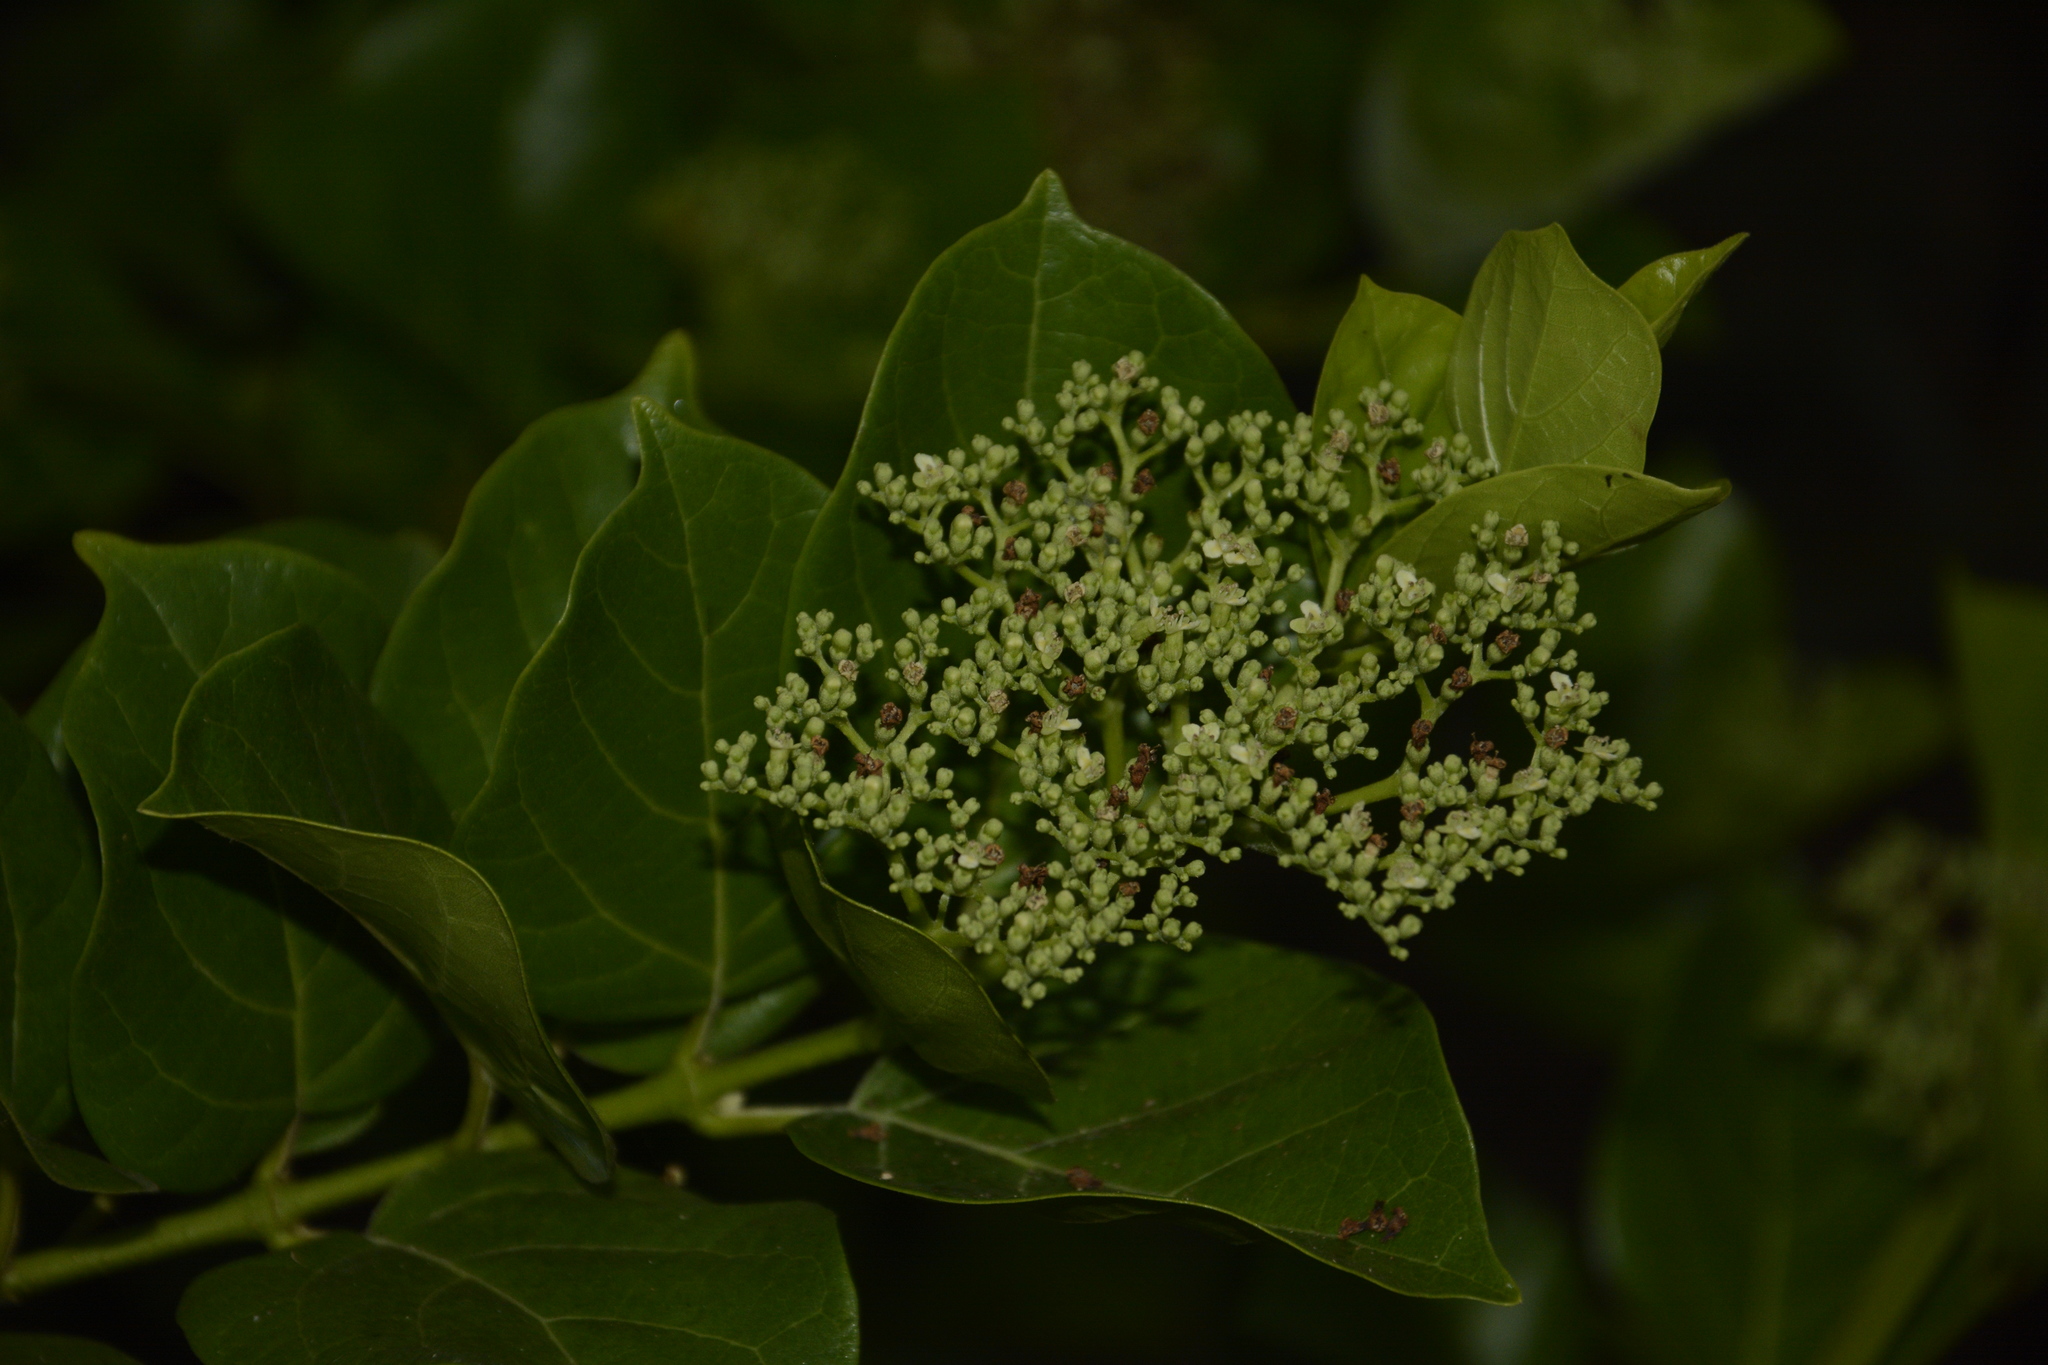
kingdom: Plantae
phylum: Tracheophyta
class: Magnoliopsida
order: Lamiales
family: Lamiaceae
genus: Premna
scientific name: Premna serratifolia
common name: Bastard guelder
